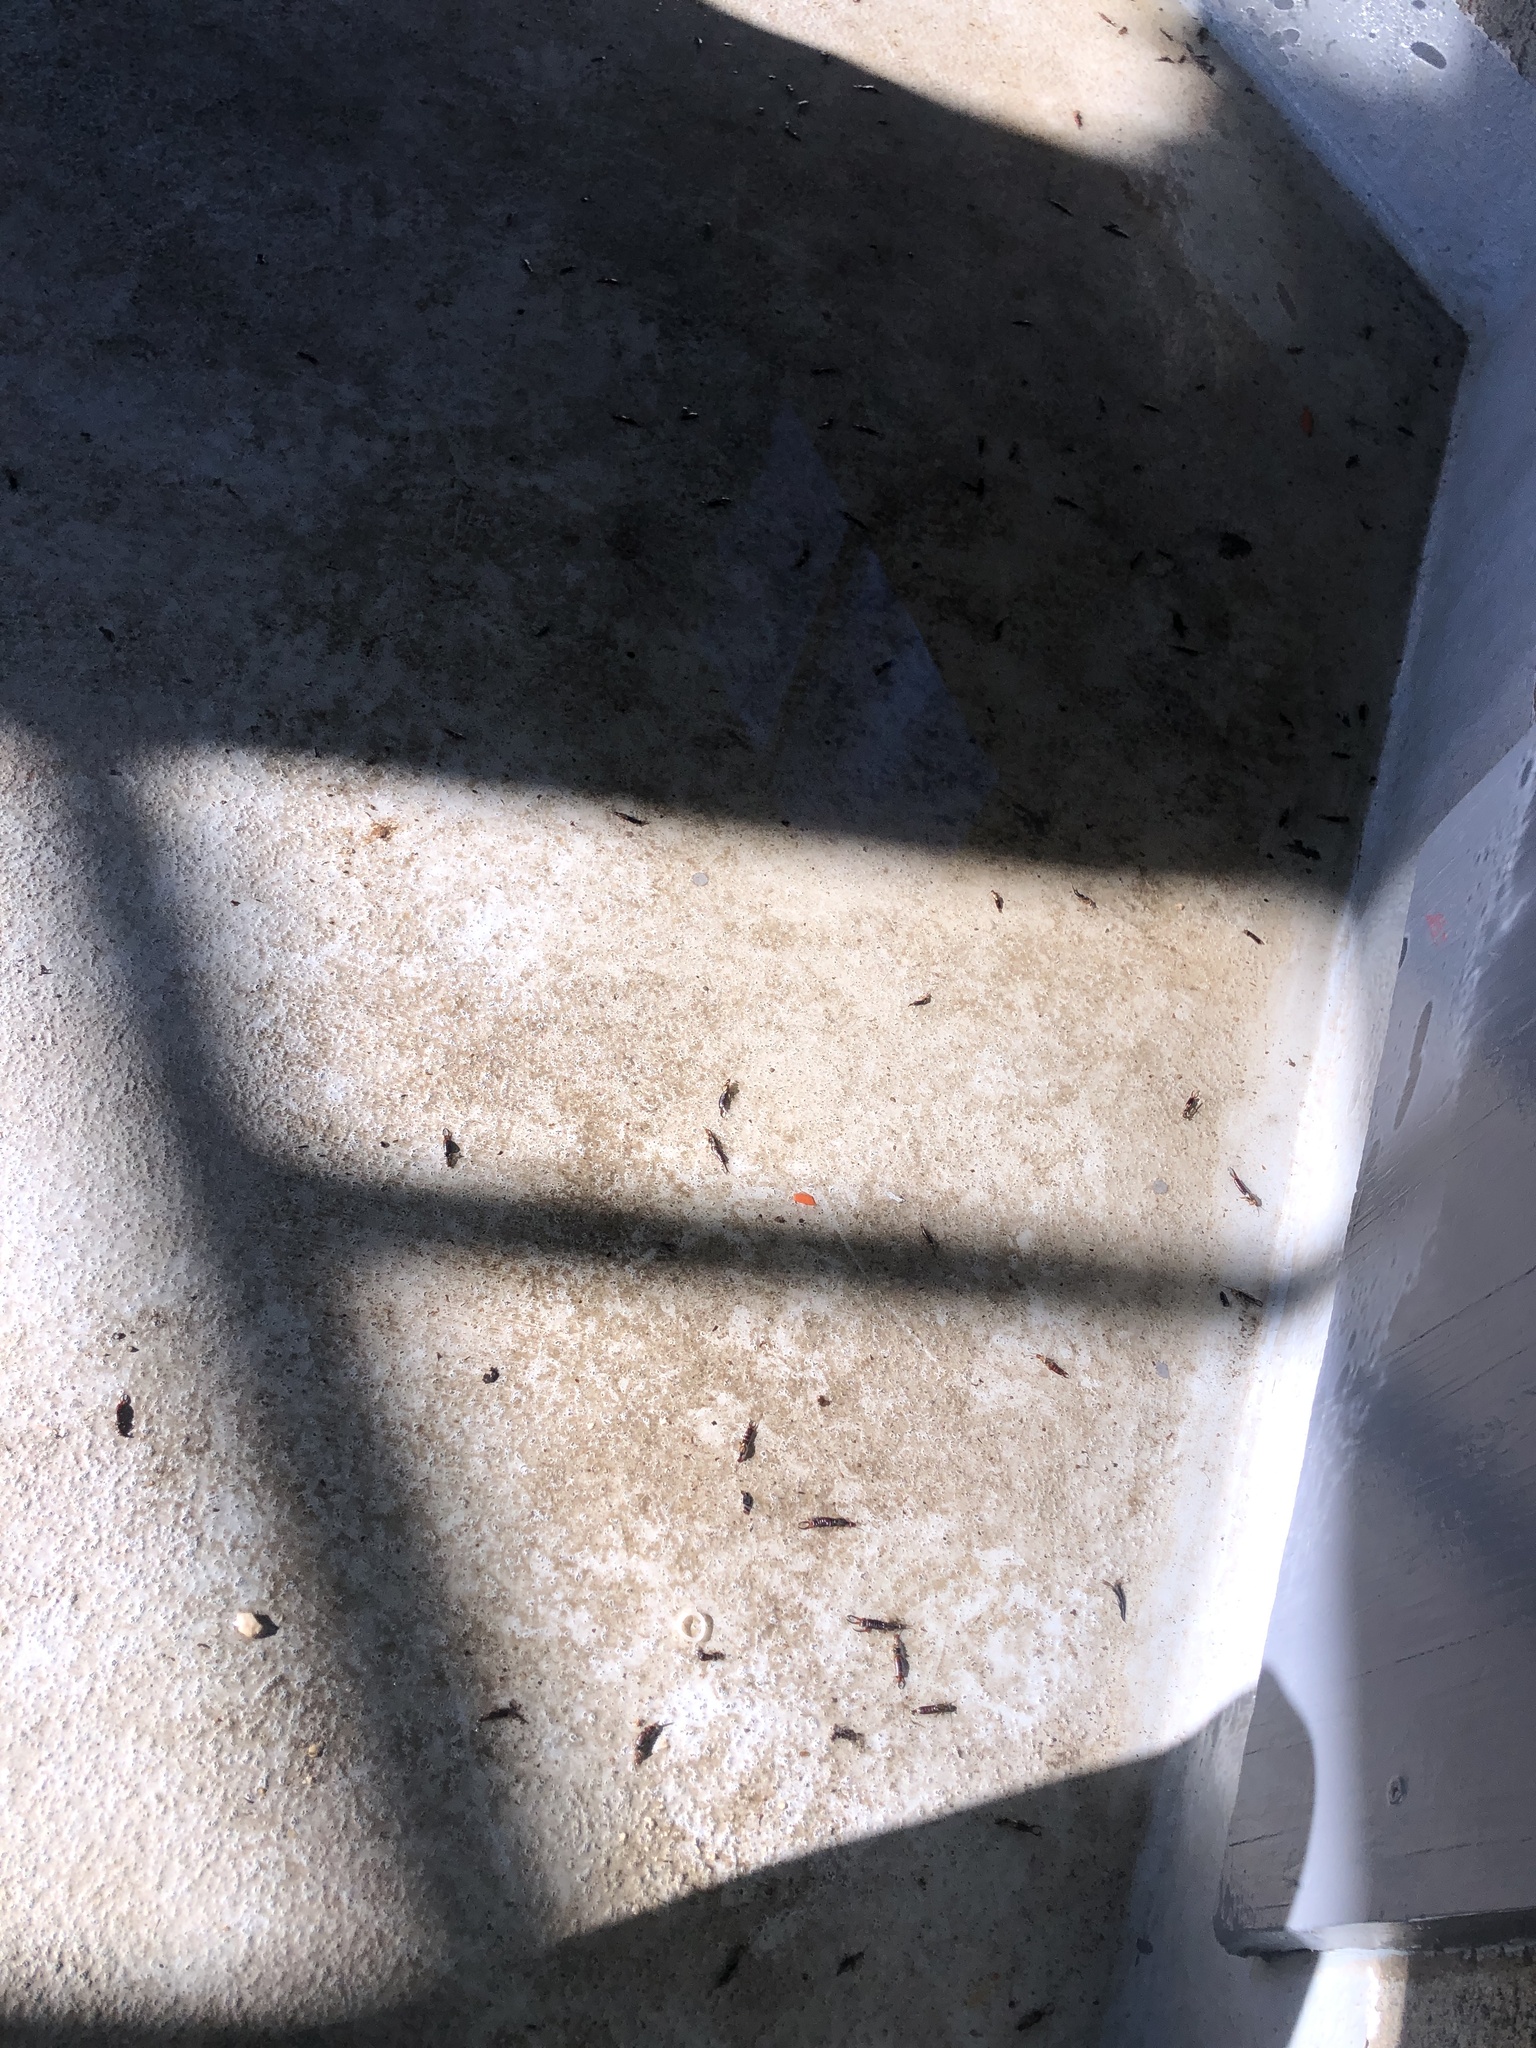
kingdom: Animalia
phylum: Arthropoda
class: Insecta
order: Dermaptera
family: Forficulidae
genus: Forficula
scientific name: Forficula
